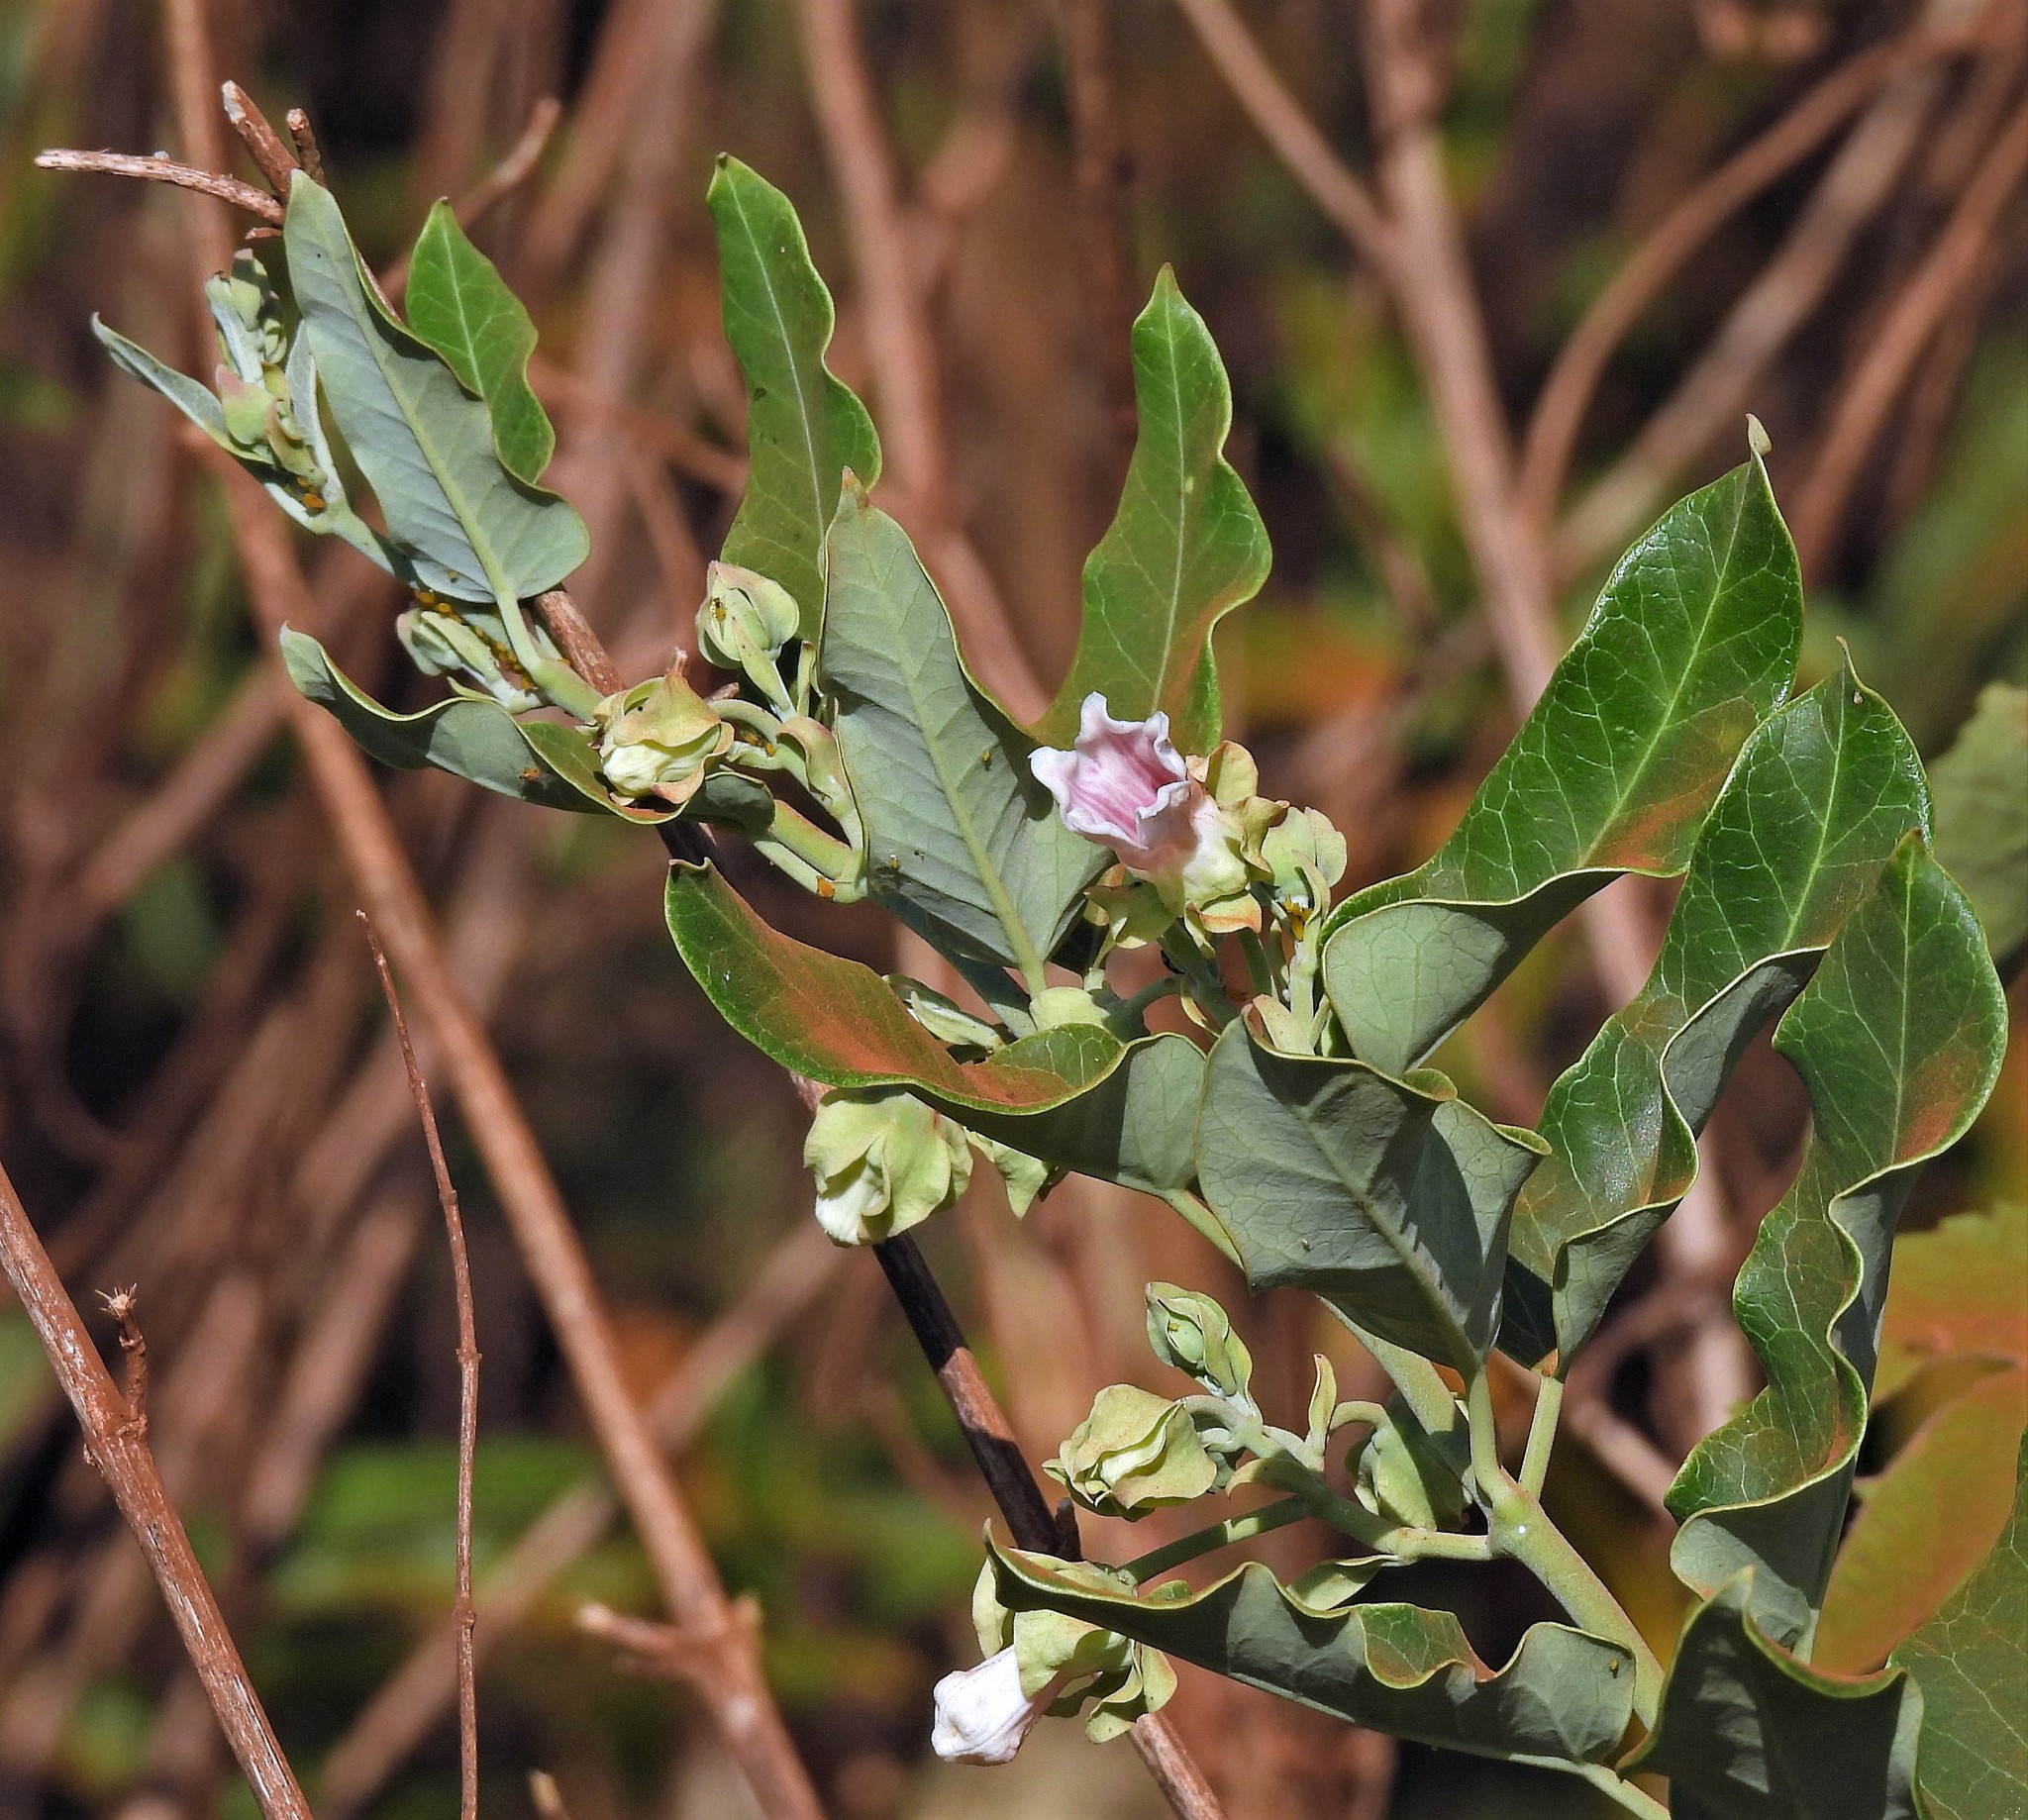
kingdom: Plantae
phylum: Tracheophyta
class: Magnoliopsida
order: Gentianales
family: Apocynaceae
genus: Araujia
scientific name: Araujia sericifera
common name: White bladderflower
